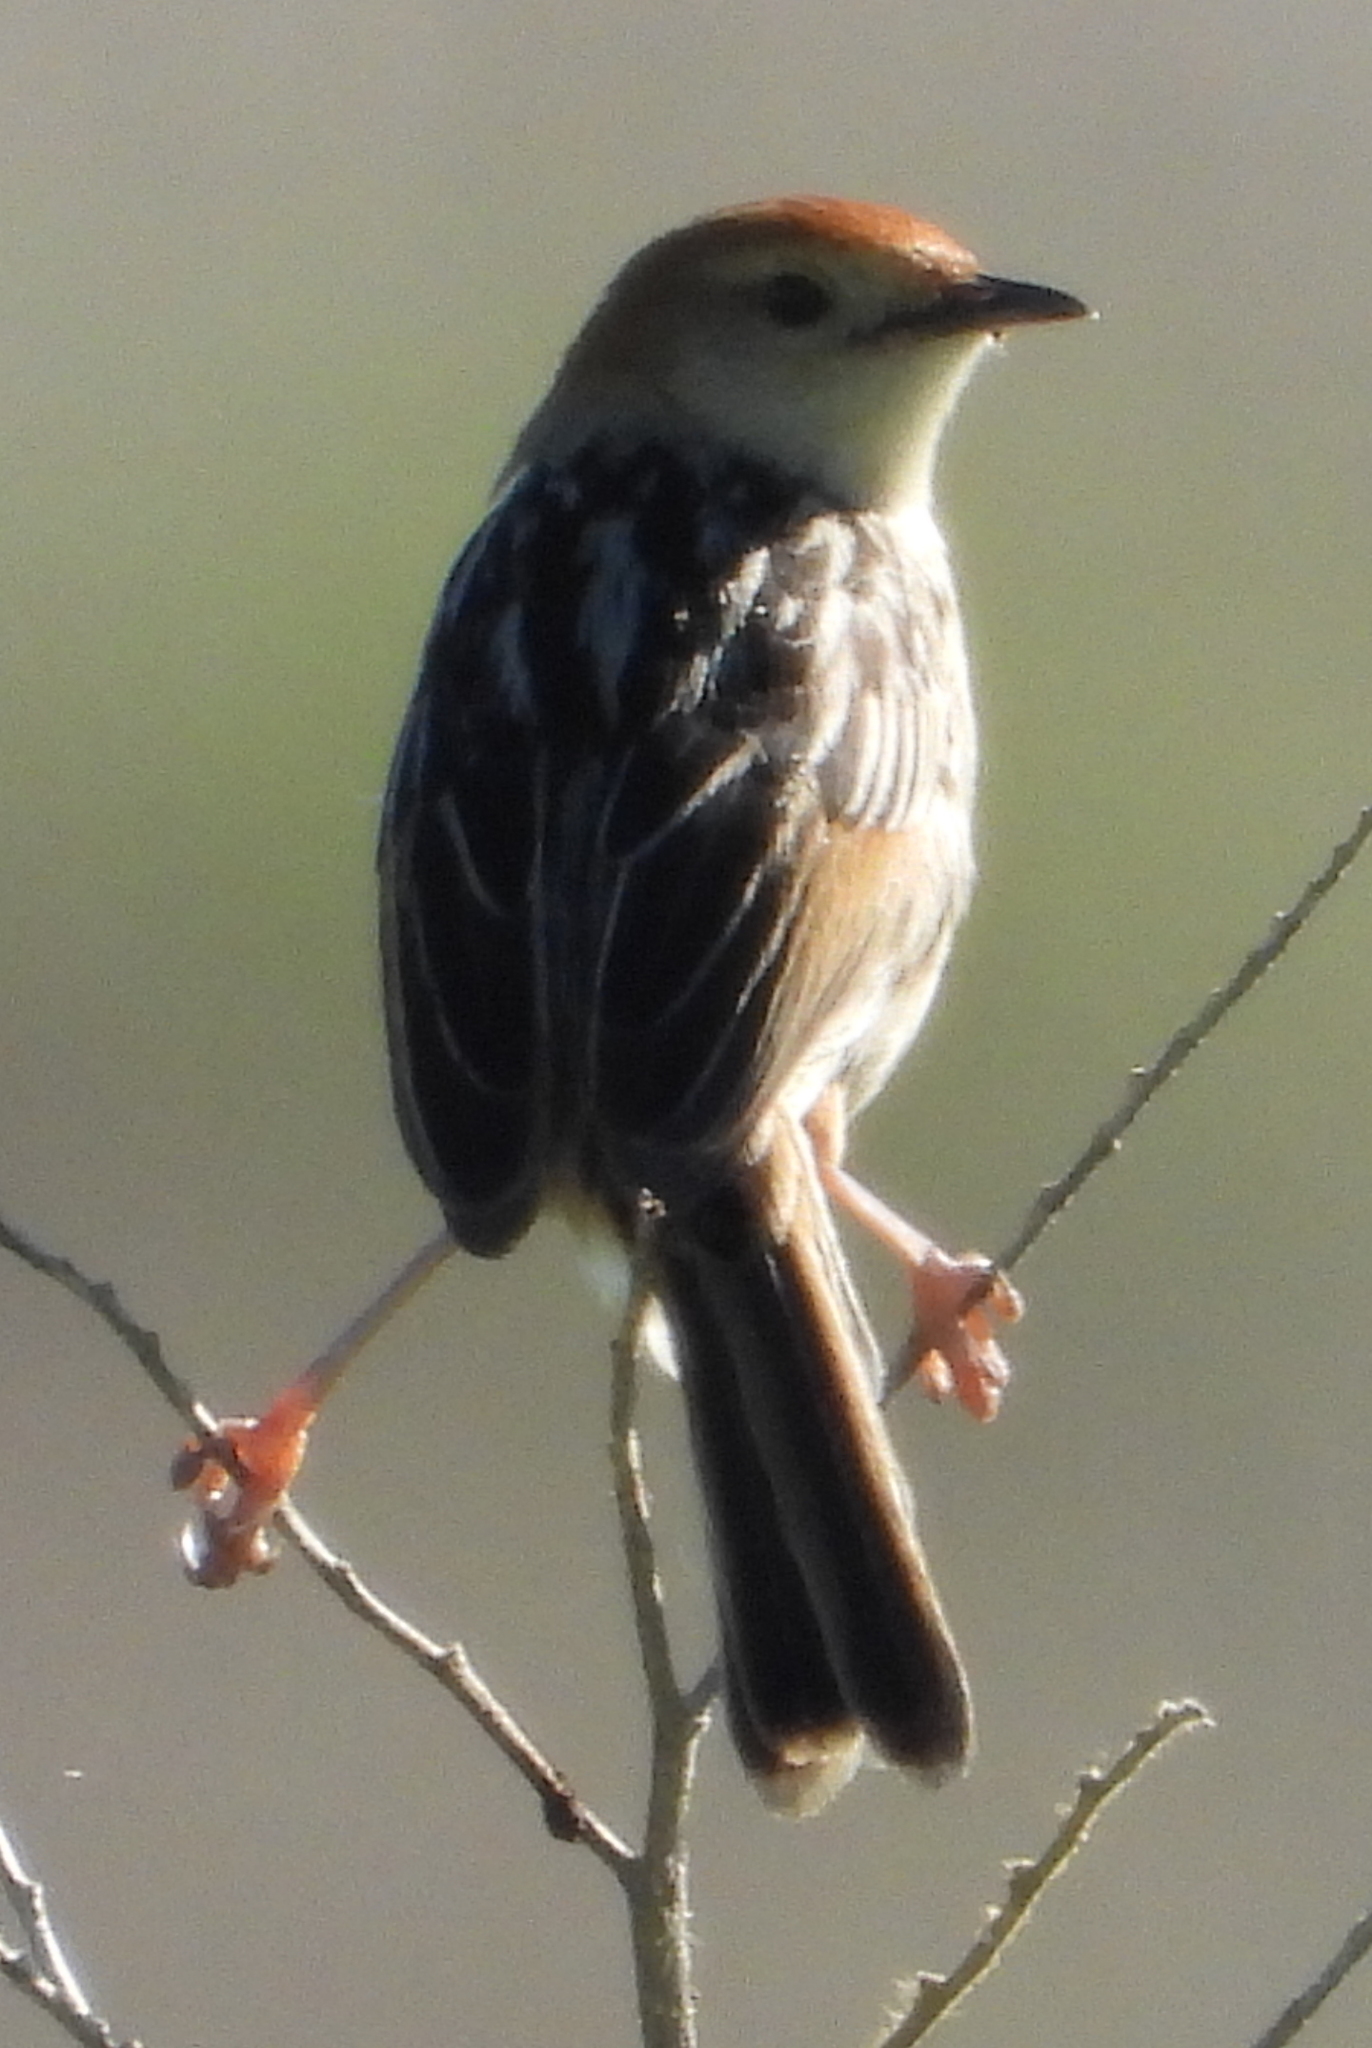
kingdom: Animalia
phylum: Chordata
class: Aves
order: Passeriformes
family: Cisticolidae
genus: Cisticola
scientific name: Cisticola tinniens
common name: Levaillant's cisticola
